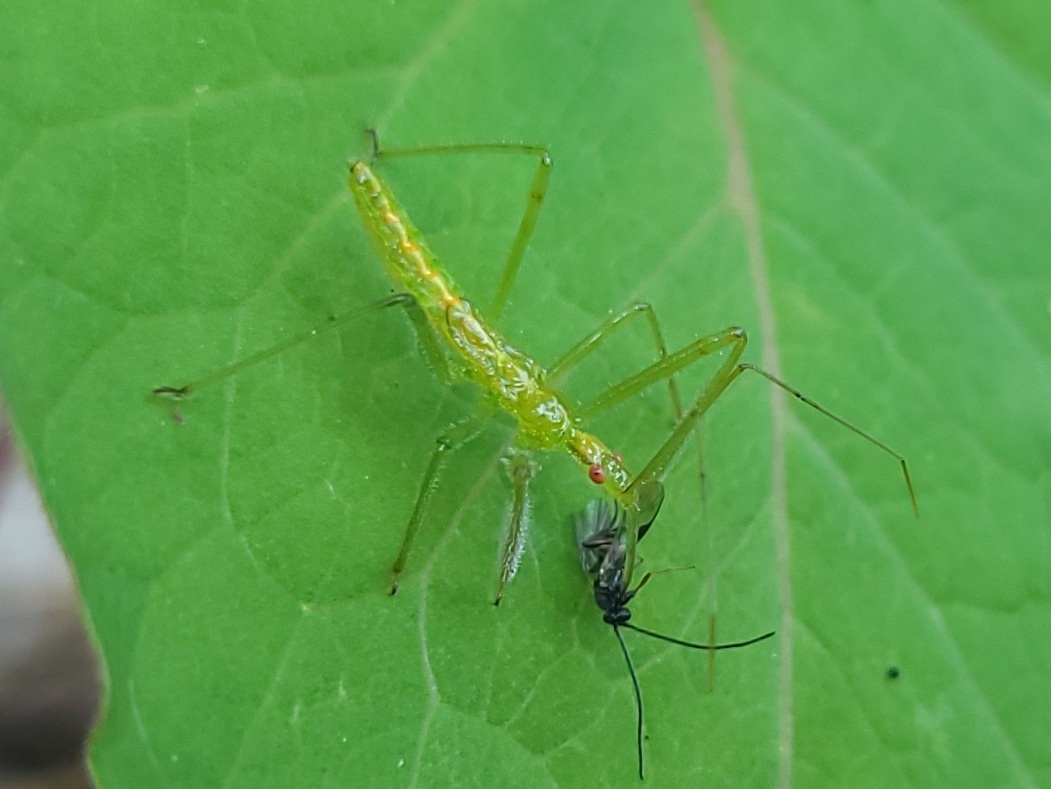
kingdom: Animalia
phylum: Arthropoda
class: Insecta
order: Hemiptera
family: Reduviidae
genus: Zelus
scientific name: Zelus luridus
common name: Pale green assassin bug
